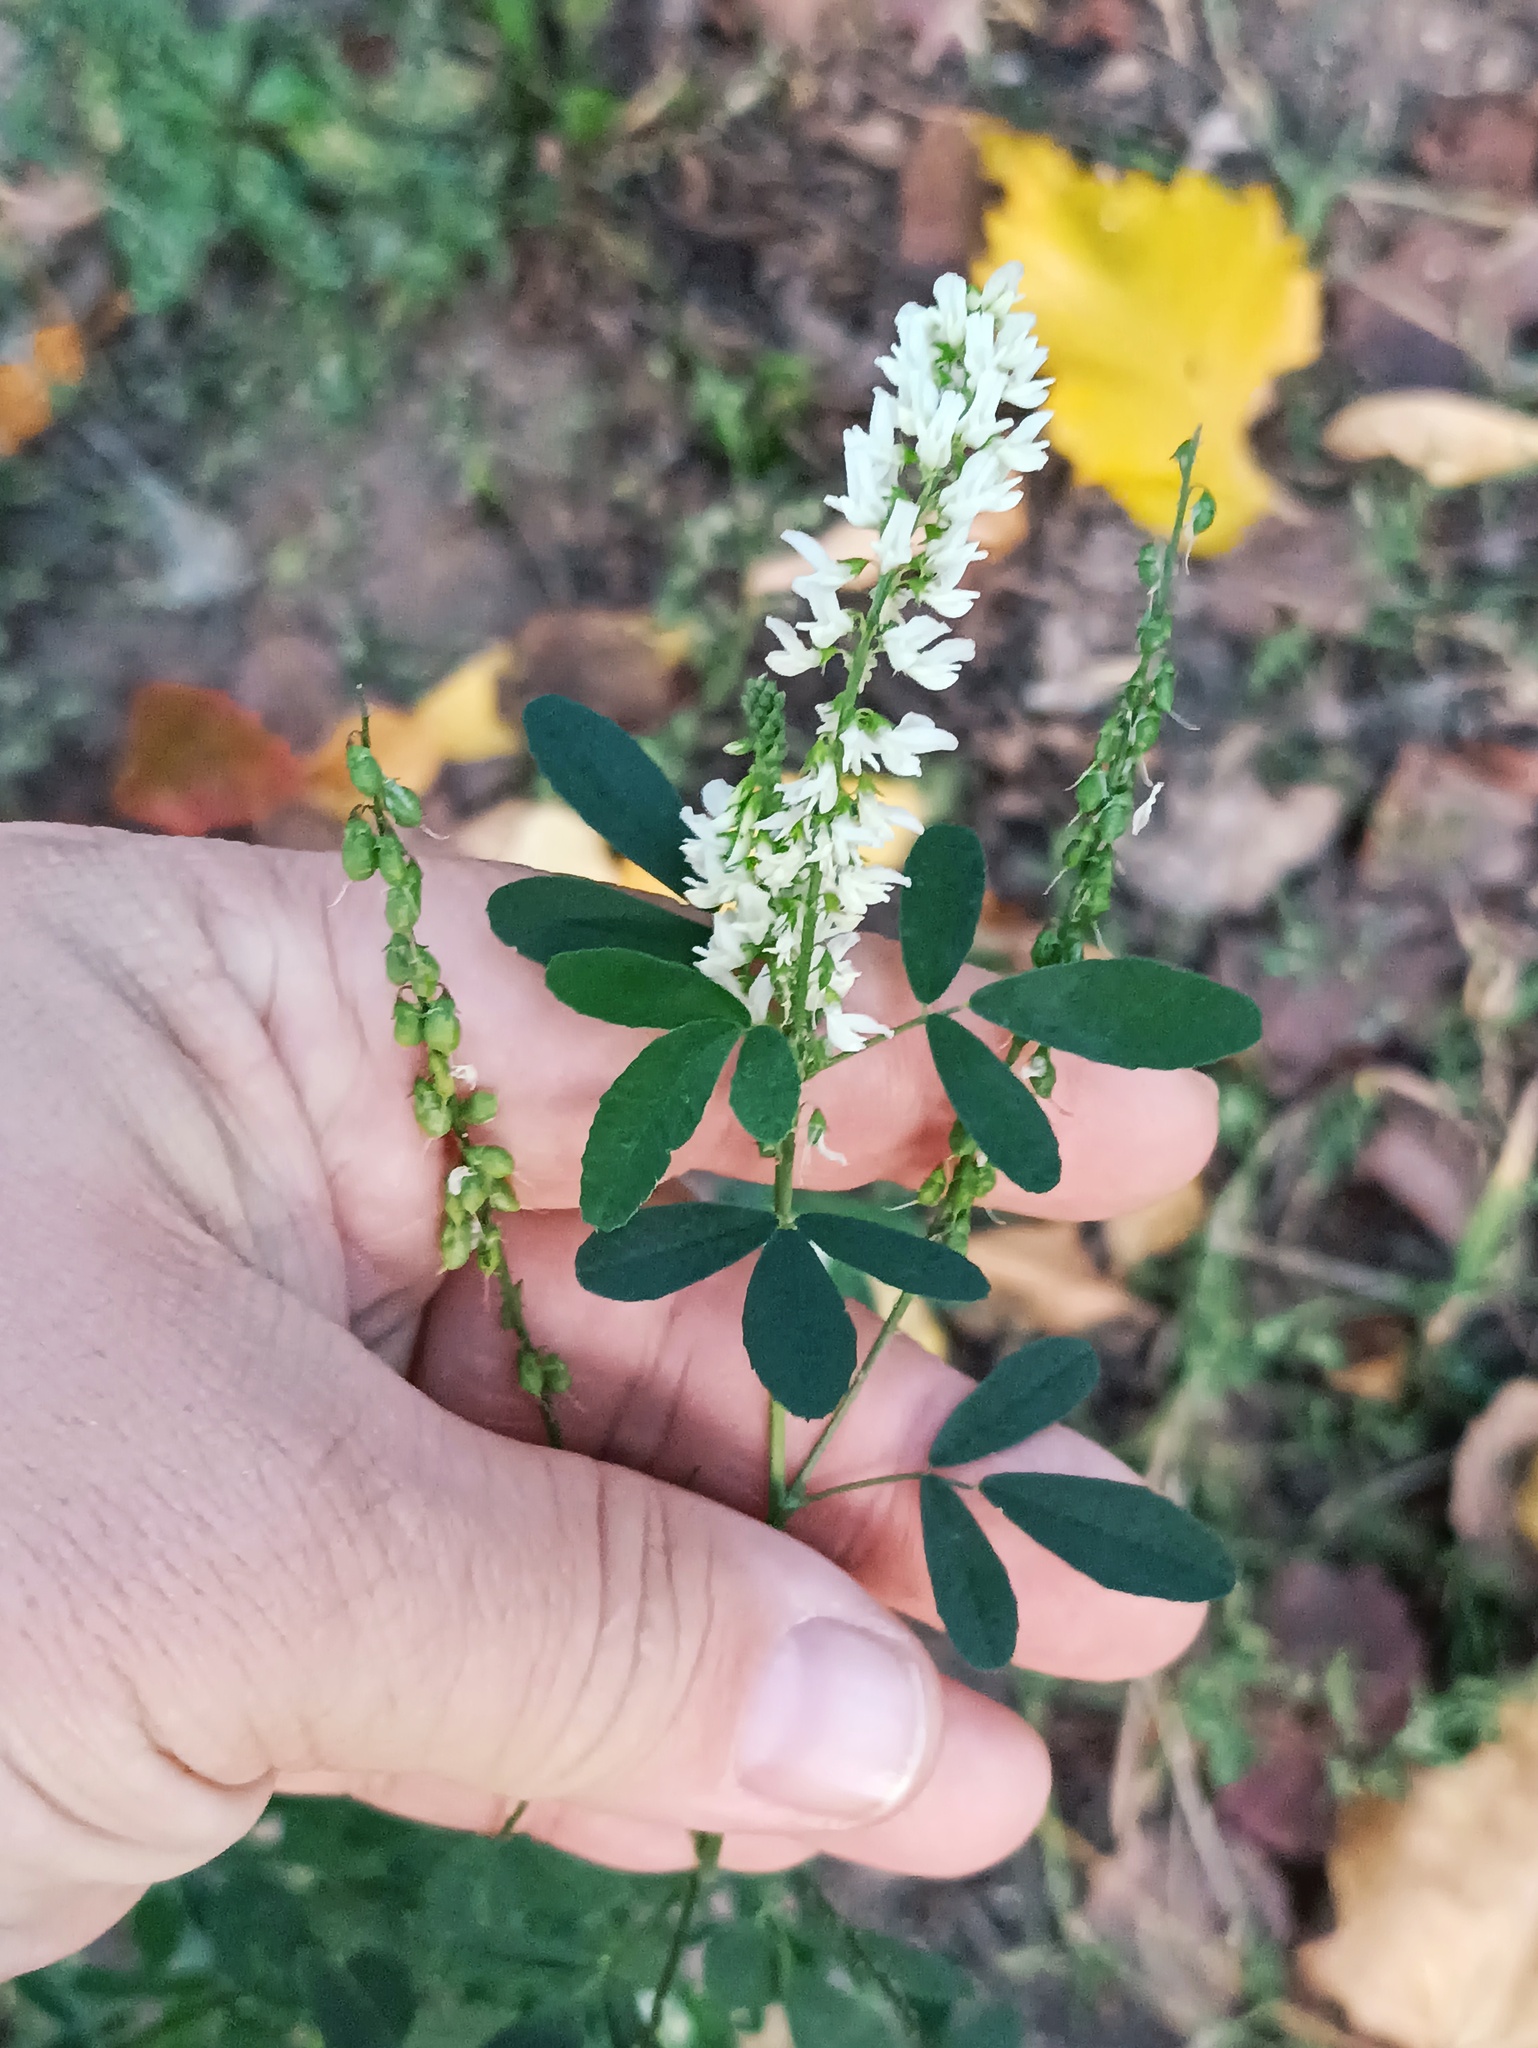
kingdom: Plantae
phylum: Tracheophyta
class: Magnoliopsida
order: Fabales
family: Fabaceae
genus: Melilotus
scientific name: Melilotus albus
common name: White melilot
